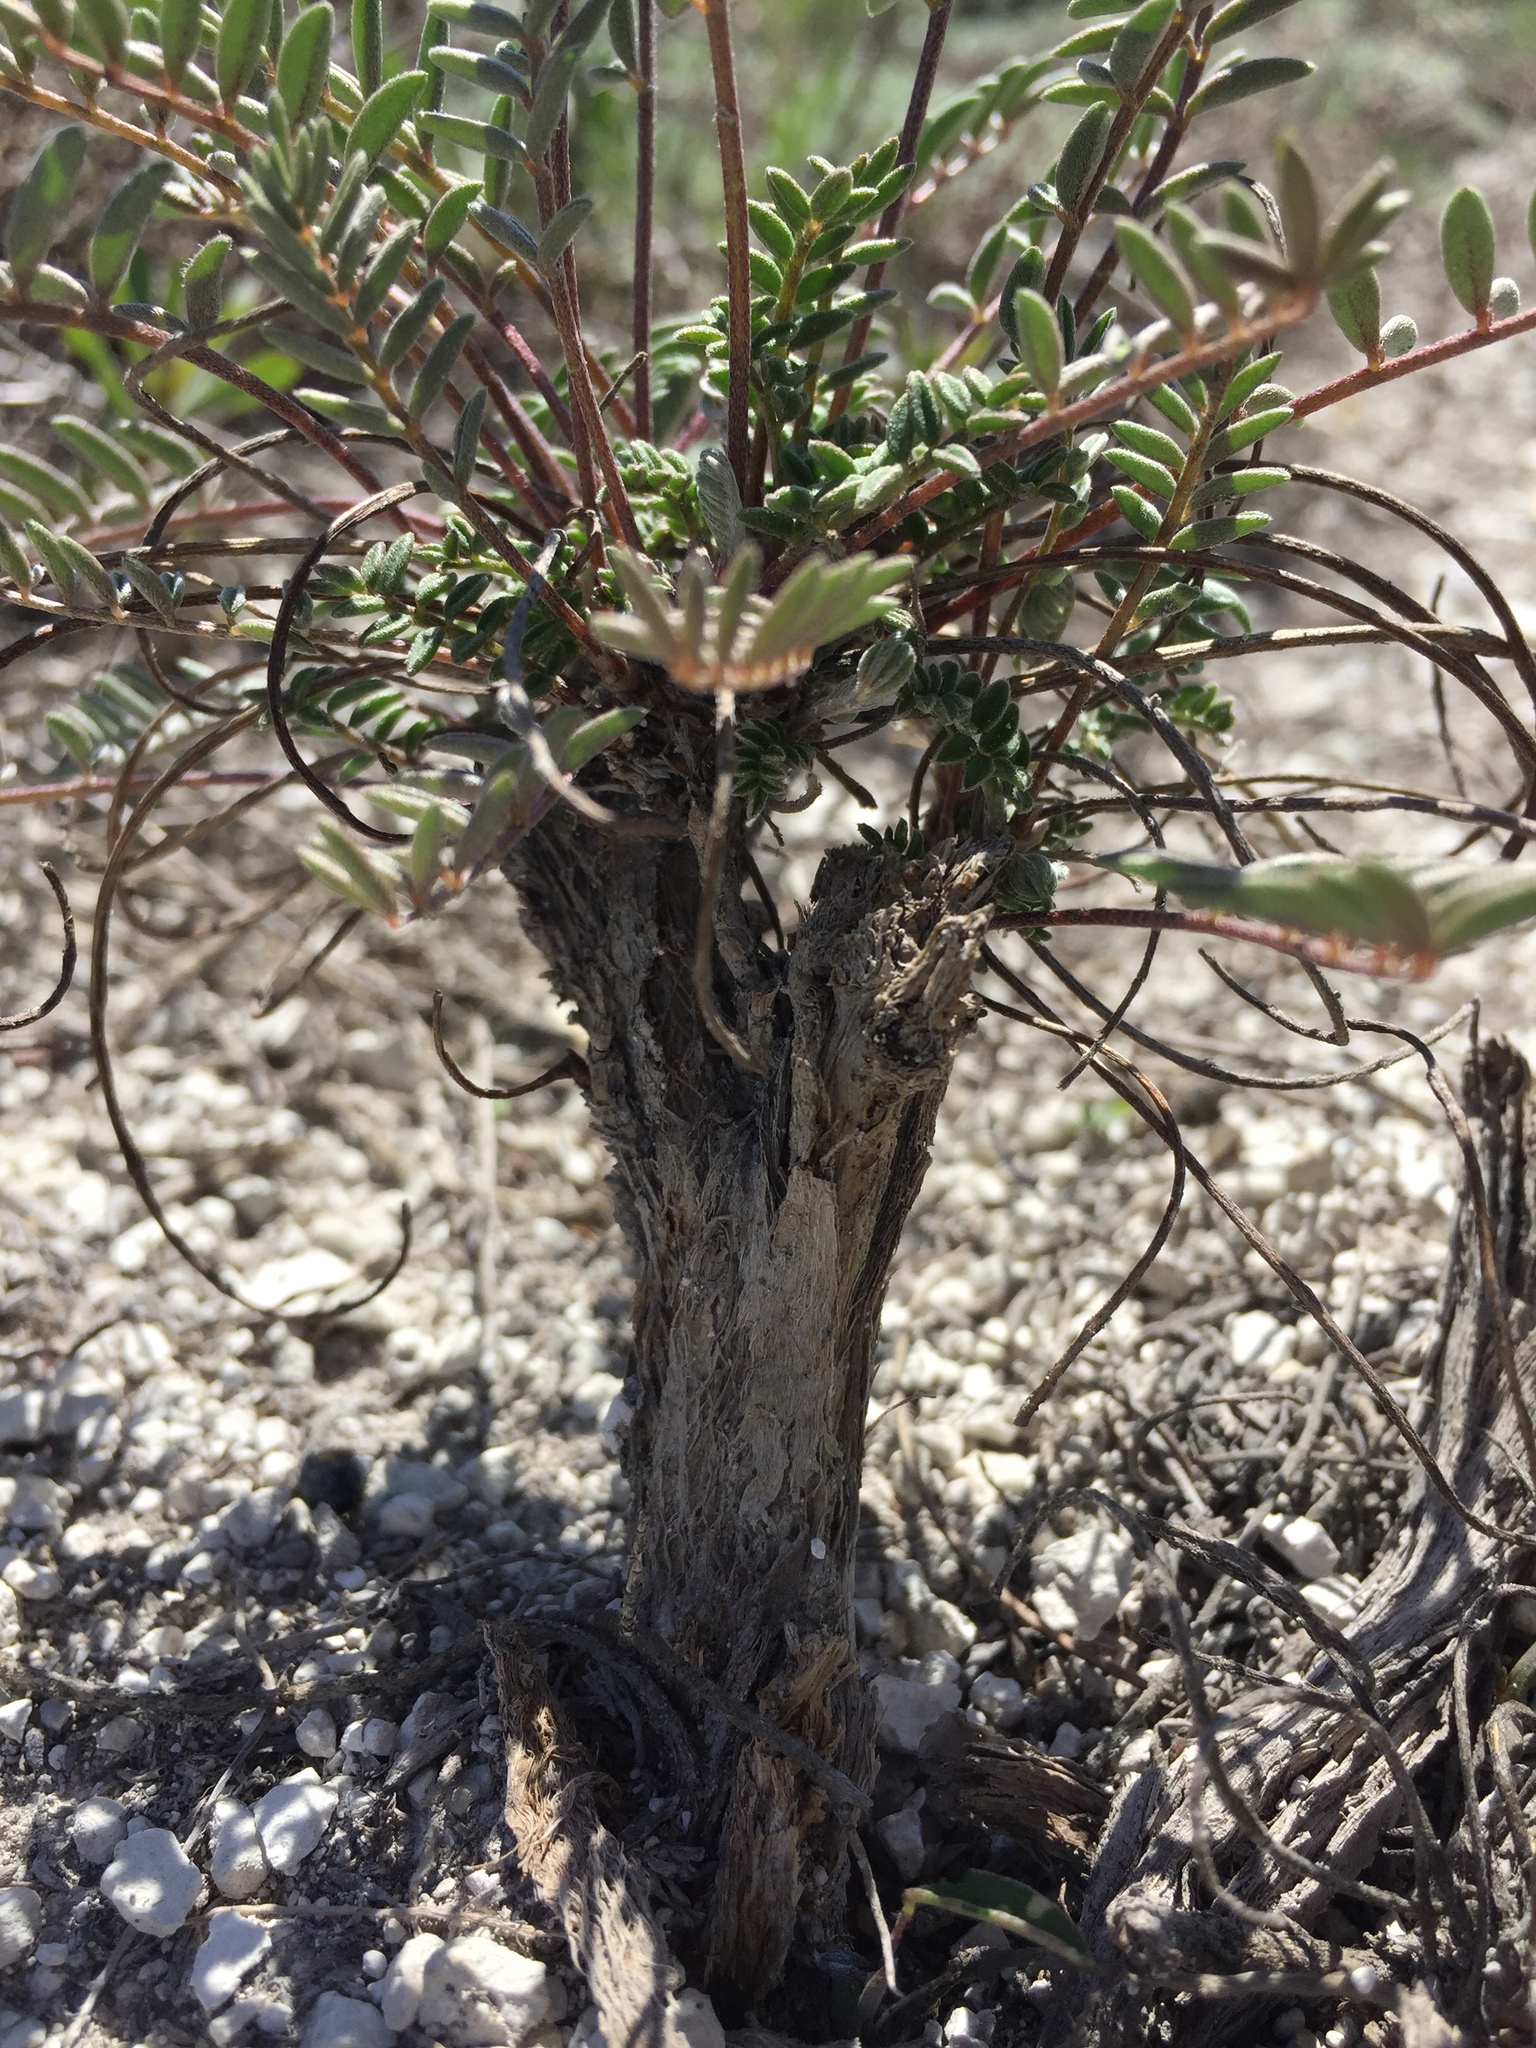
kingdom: Plantae
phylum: Tracheophyta
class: Magnoliopsida
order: Fabales
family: Fabaceae
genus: Hedysarum
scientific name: Hedysarum ucrainicum
